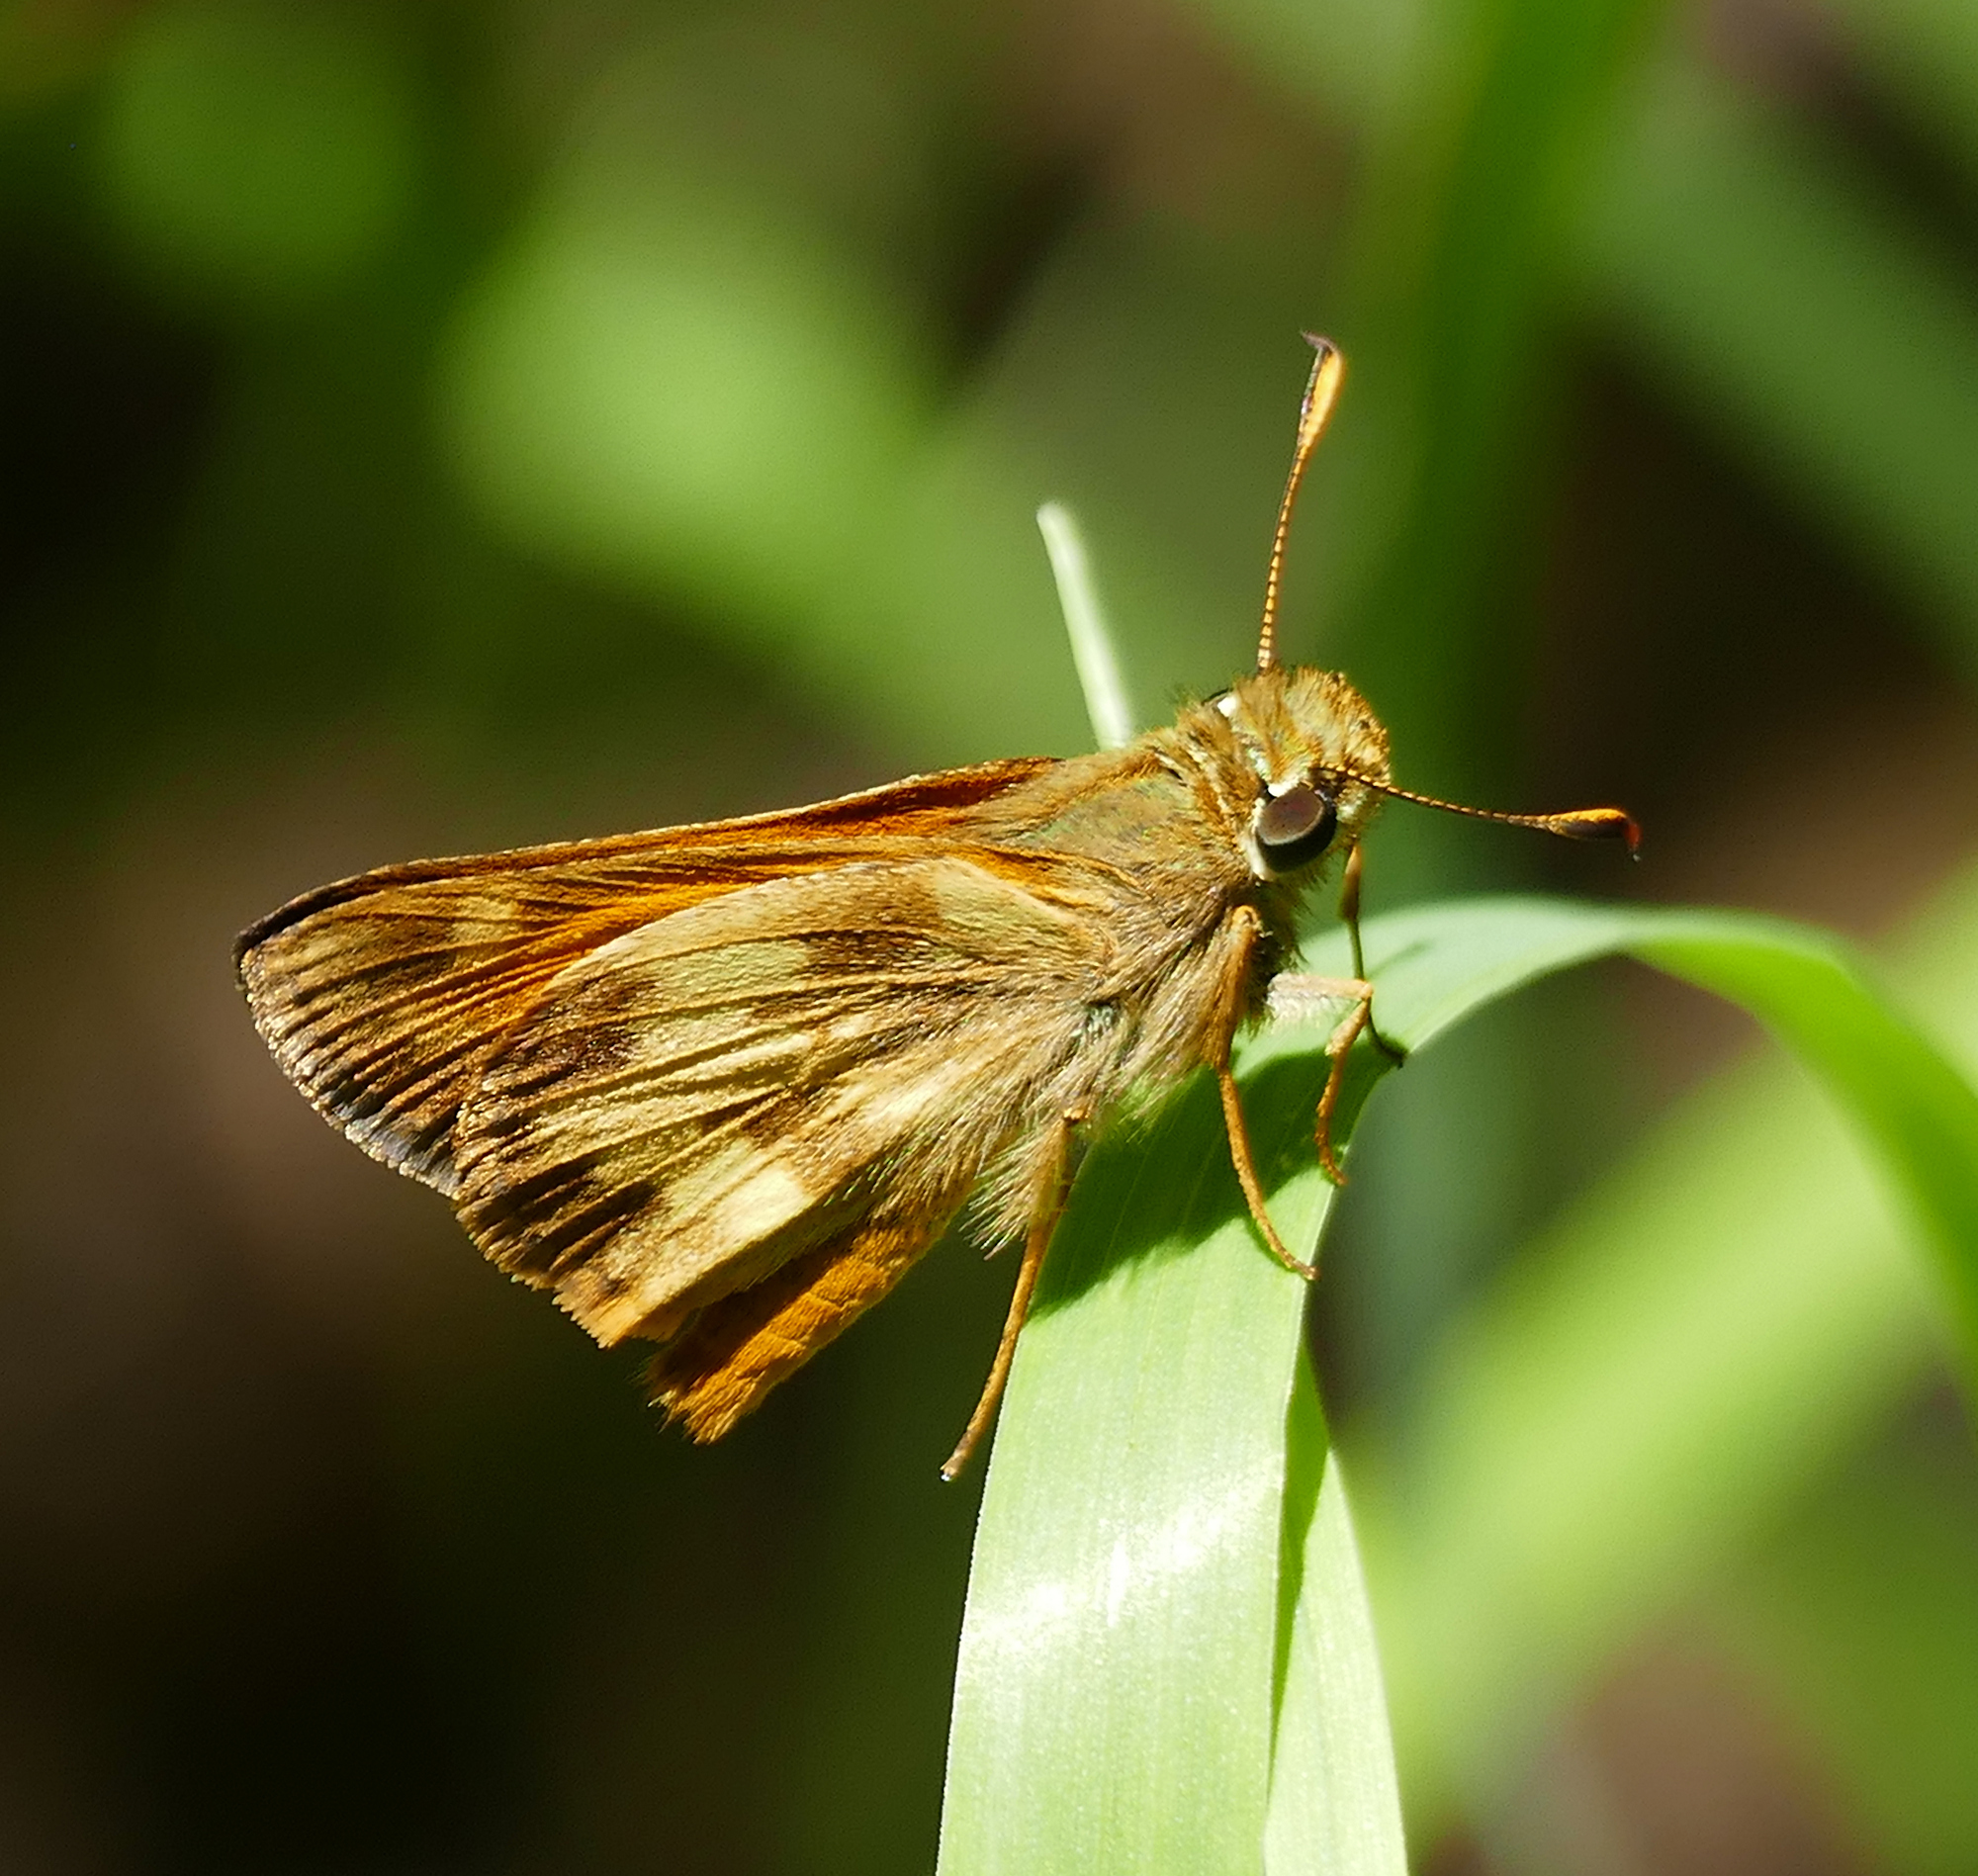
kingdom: Animalia
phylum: Arthropoda
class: Insecta
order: Lepidoptera
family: Hesperiidae
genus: Lon
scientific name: Lon taxiles
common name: Taxiles skipper
